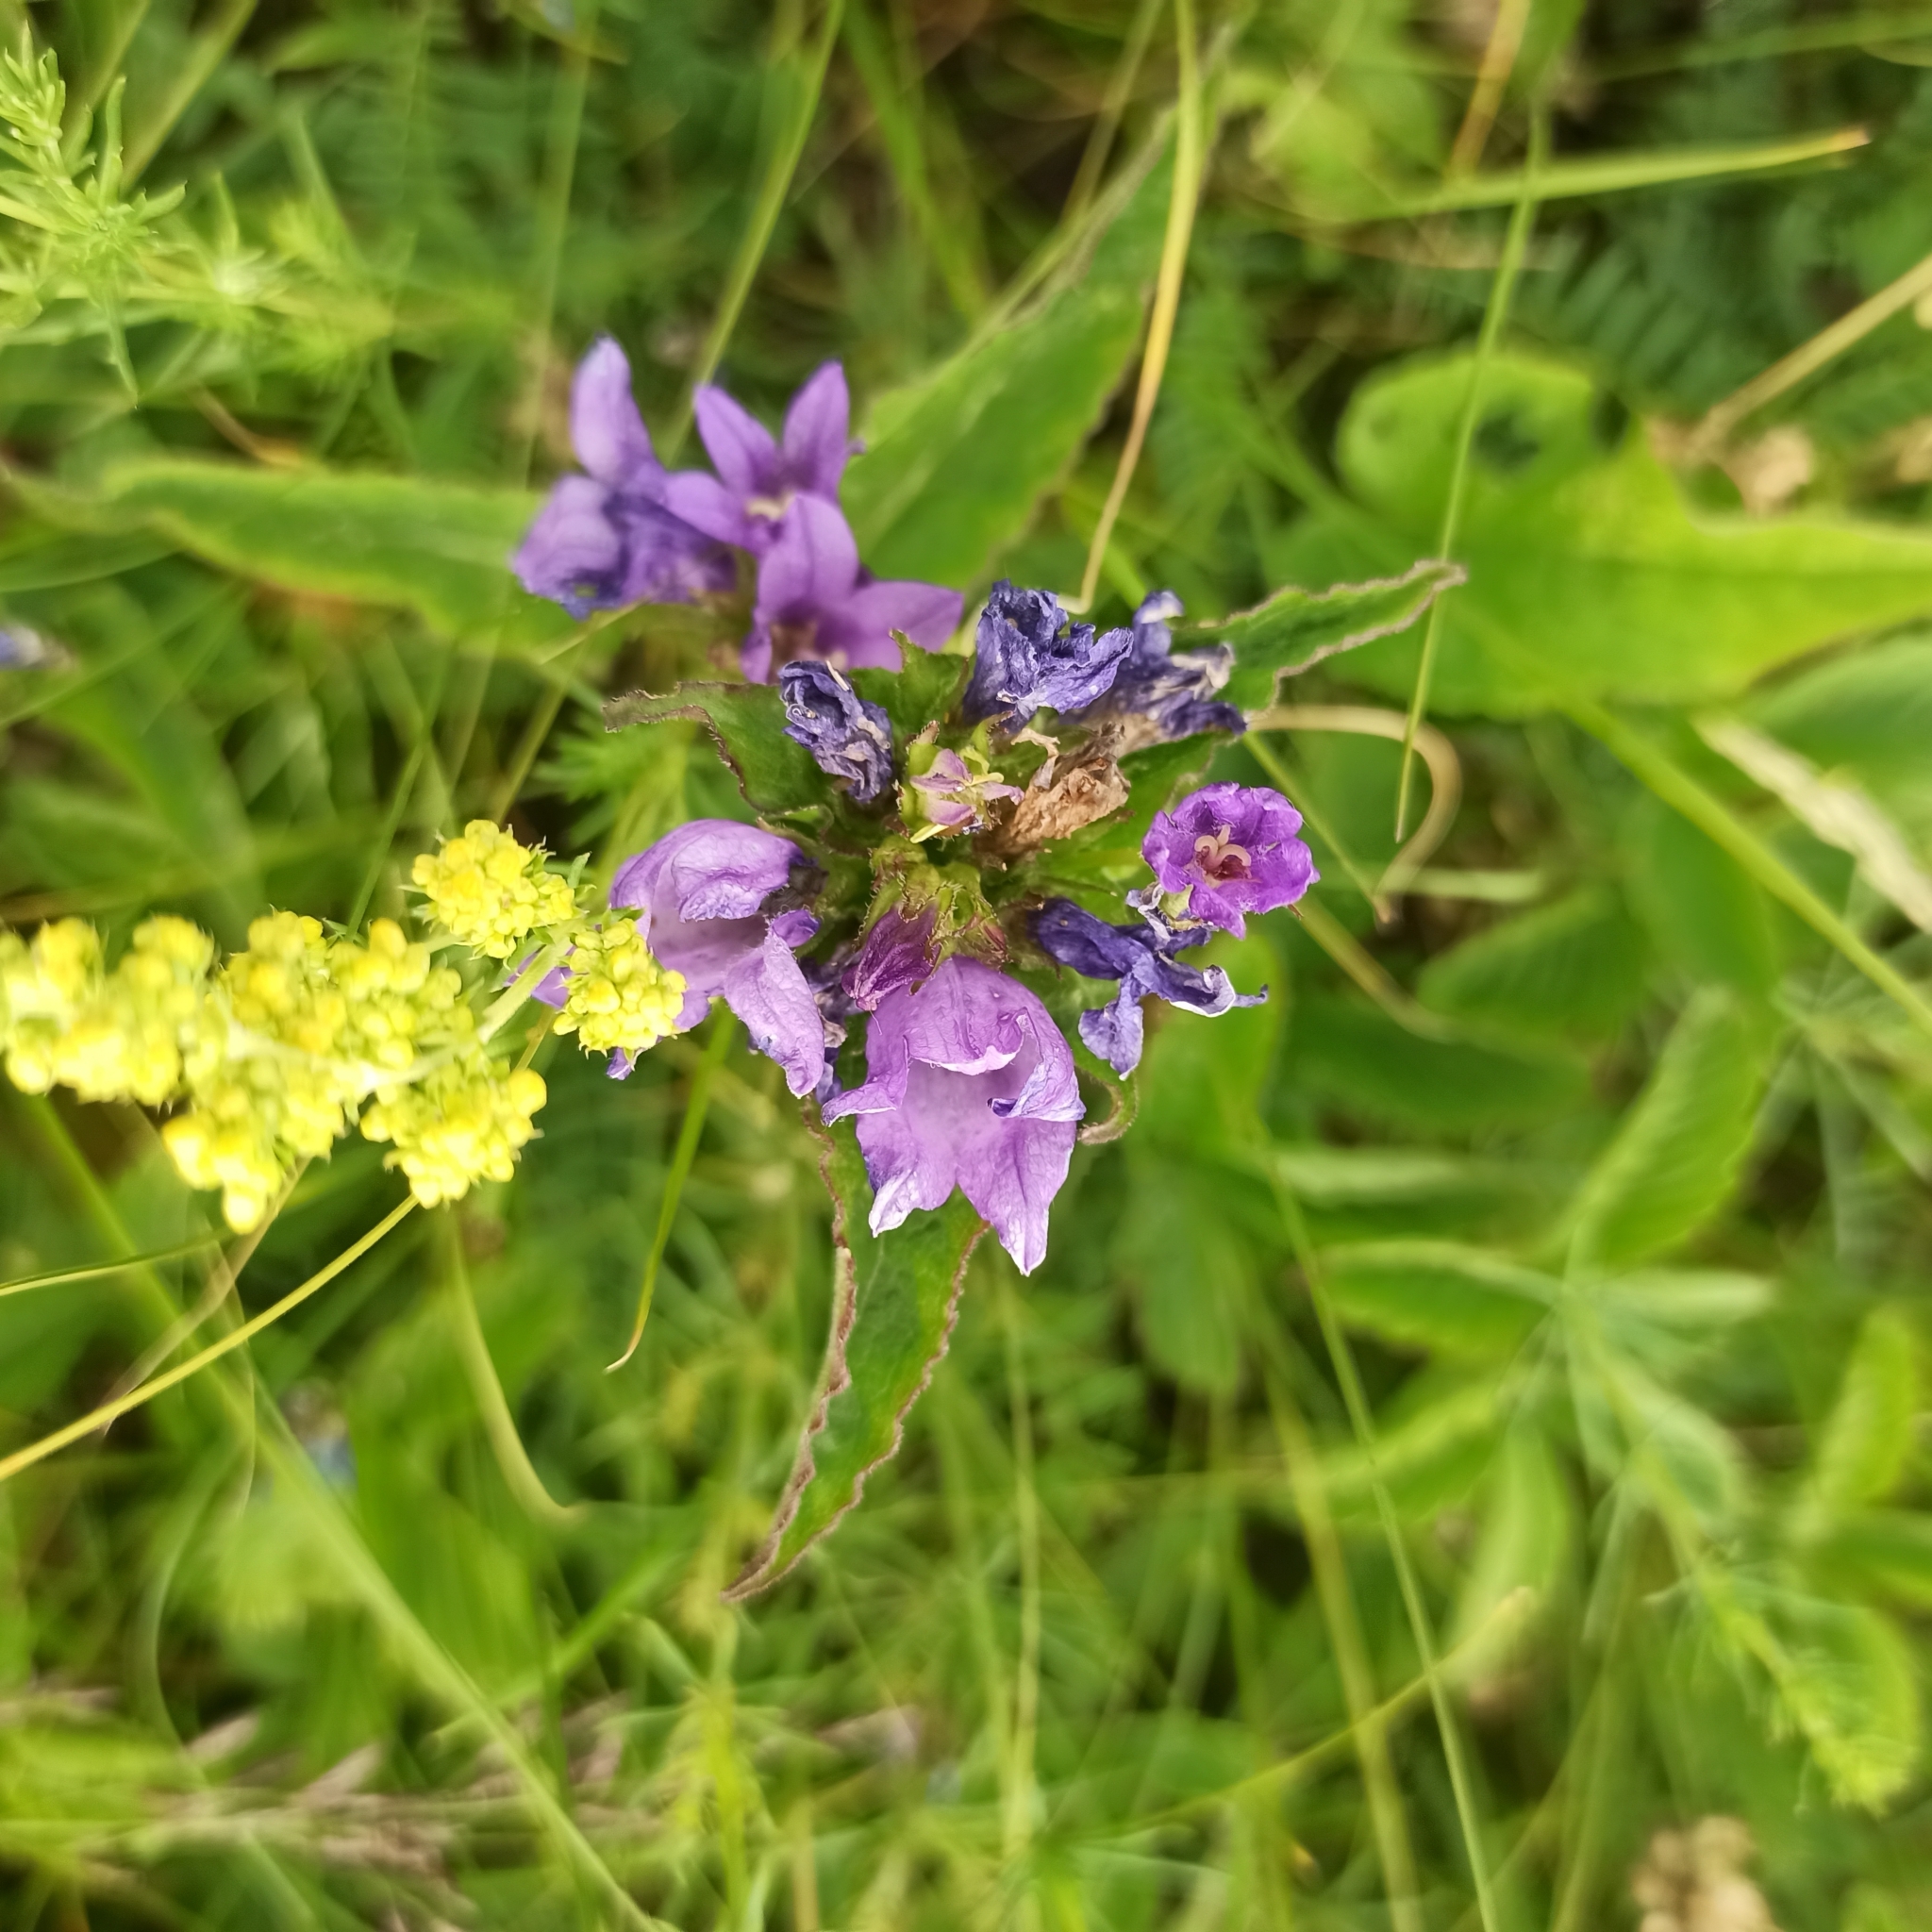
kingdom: Plantae
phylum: Tracheophyta
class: Magnoliopsida
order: Asterales
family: Campanulaceae
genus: Campanula
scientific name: Campanula glomerata
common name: Clustered bellflower
